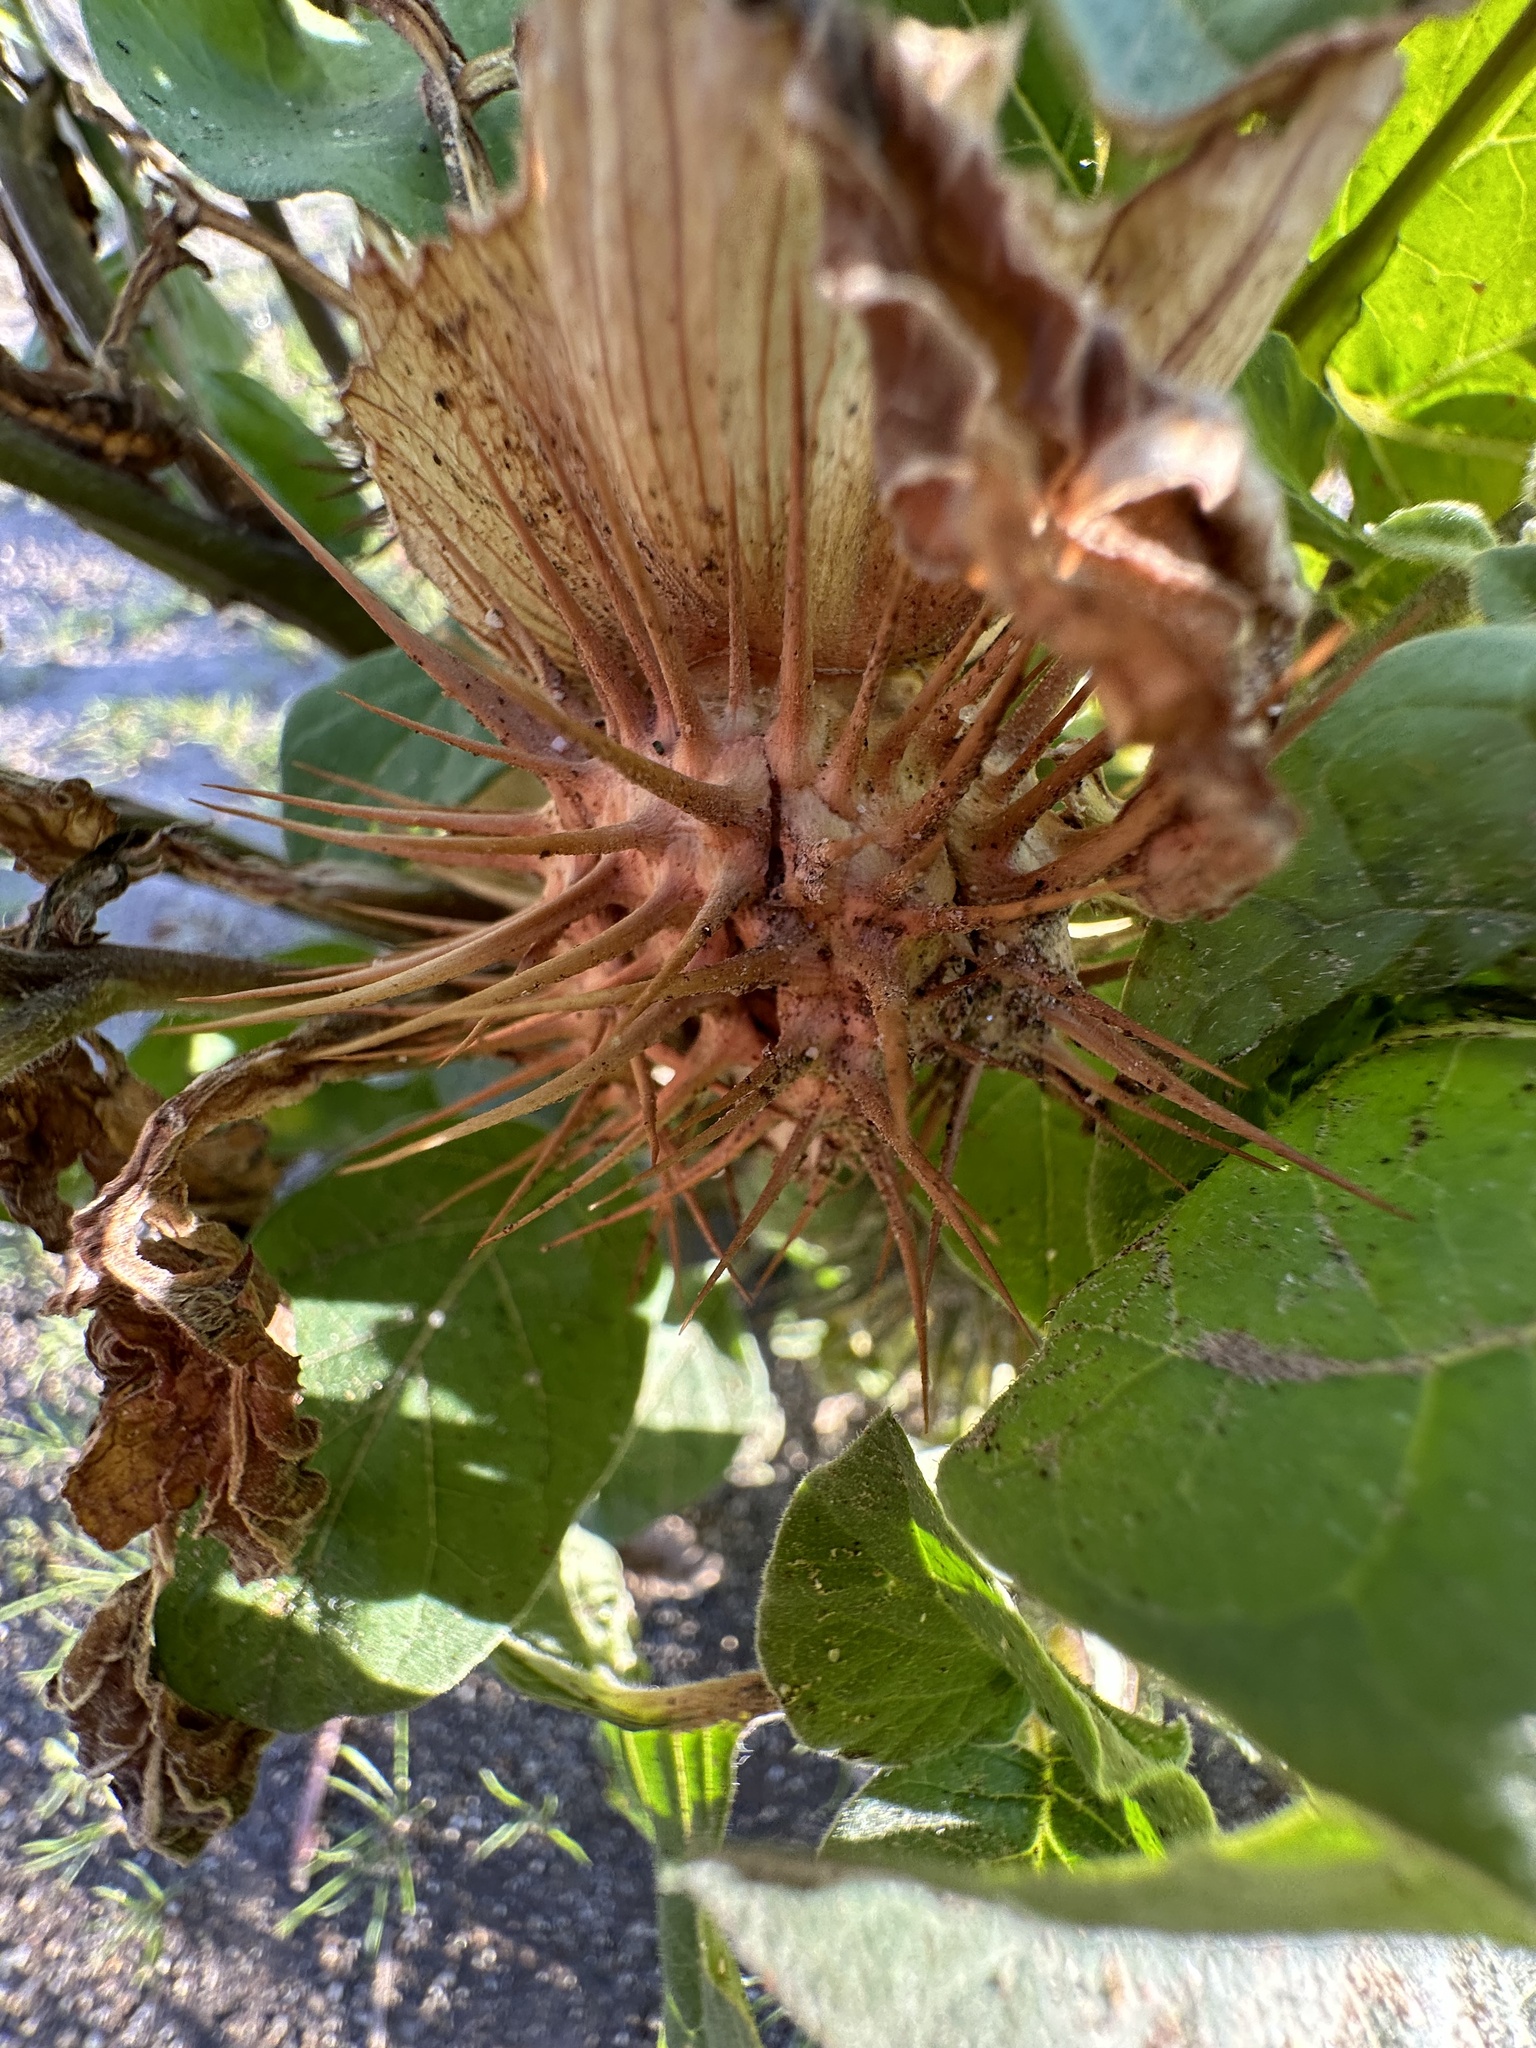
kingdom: Plantae
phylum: Tracheophyta
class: Magnoliopsida
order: Solanales
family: Solanaceae
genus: Datura
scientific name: Datura discolor
